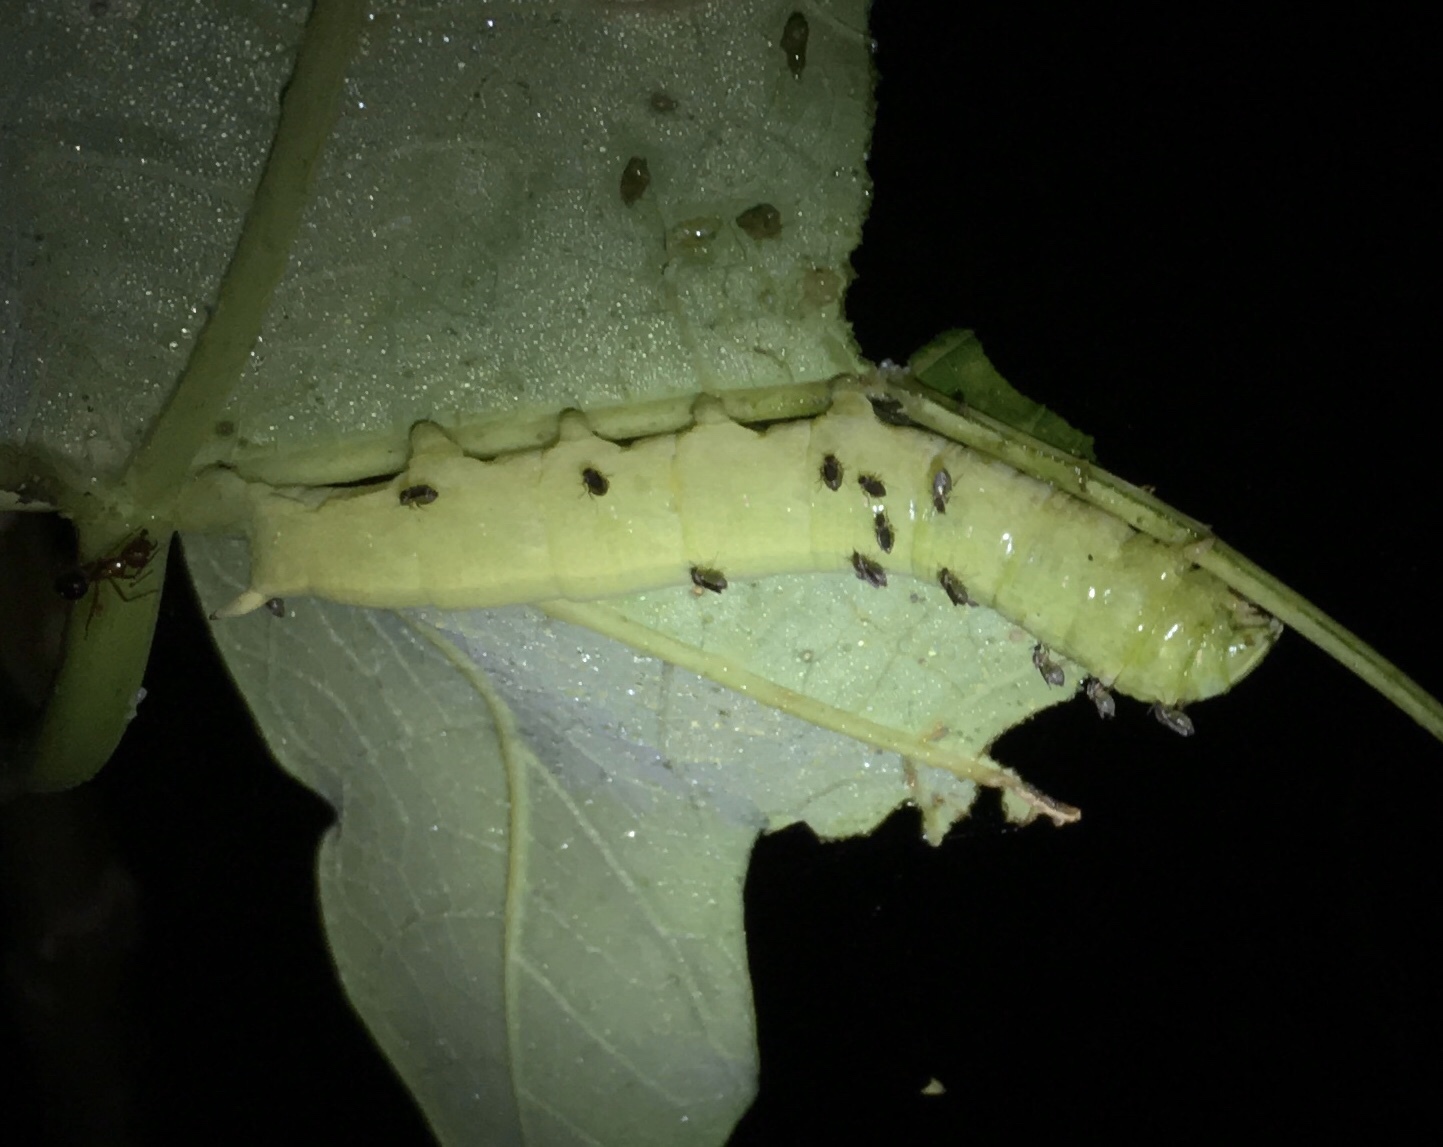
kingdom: Animalia
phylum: Arthropoda
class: Insecta
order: Lepidoptera
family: Sphingidae
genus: Erinnyis
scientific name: Erinnyis alope
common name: Alope sphinx
